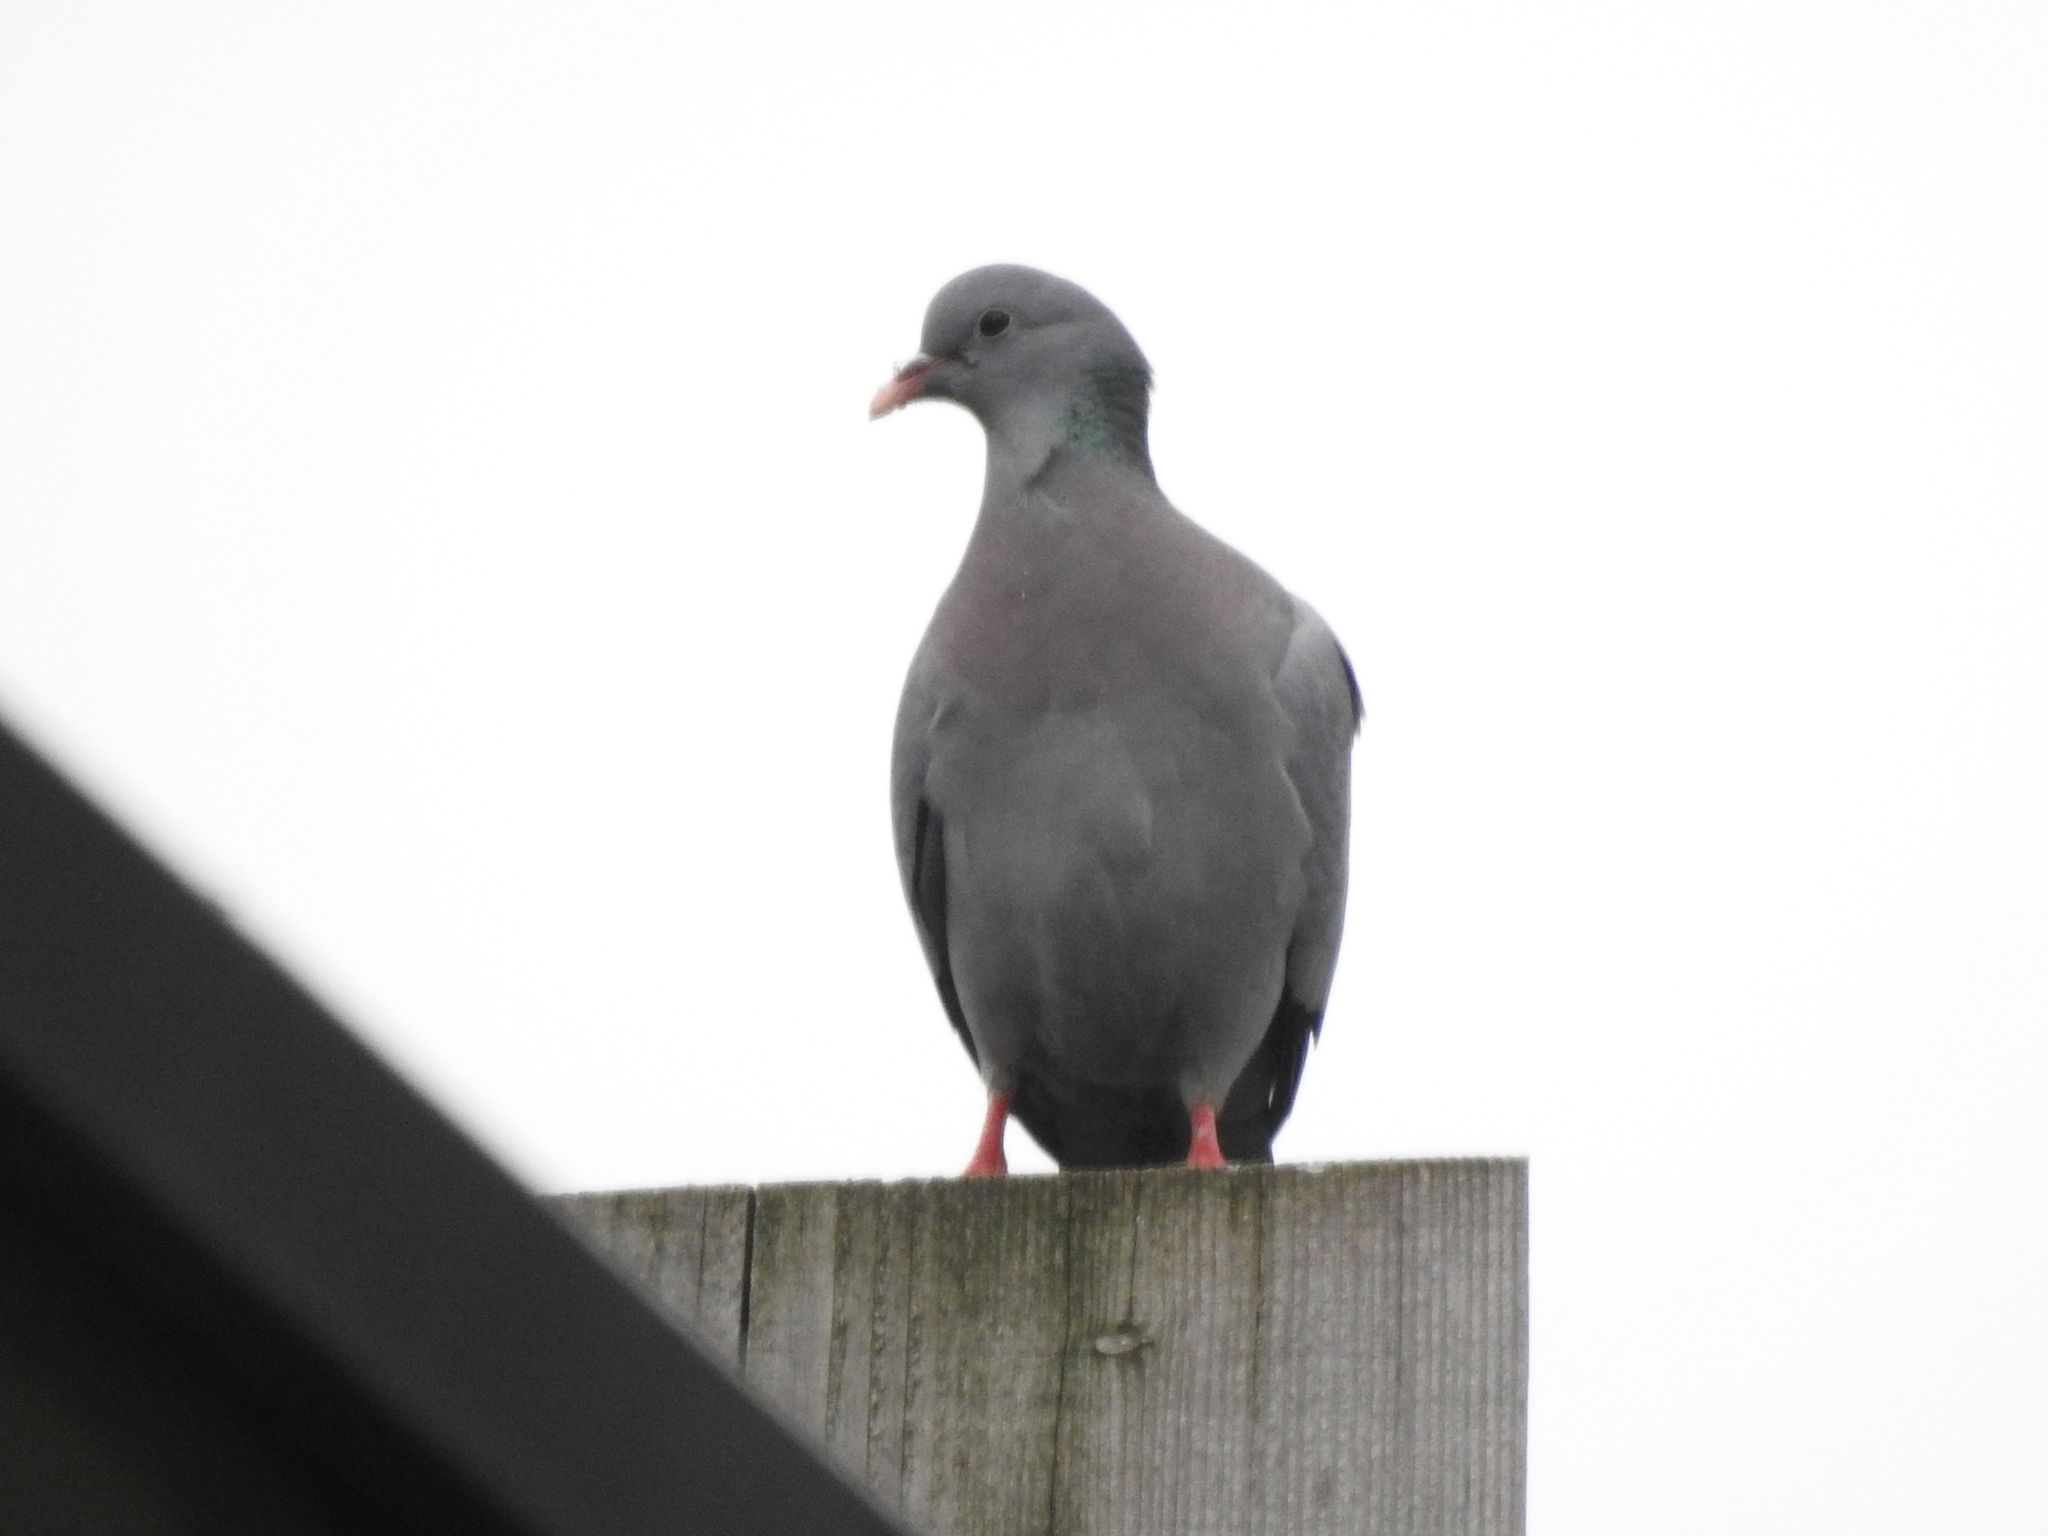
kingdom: Animalia
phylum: Chordata
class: Aves
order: Columbiformes
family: Columbidae
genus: Columba
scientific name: Columba oenas
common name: Stock dove
